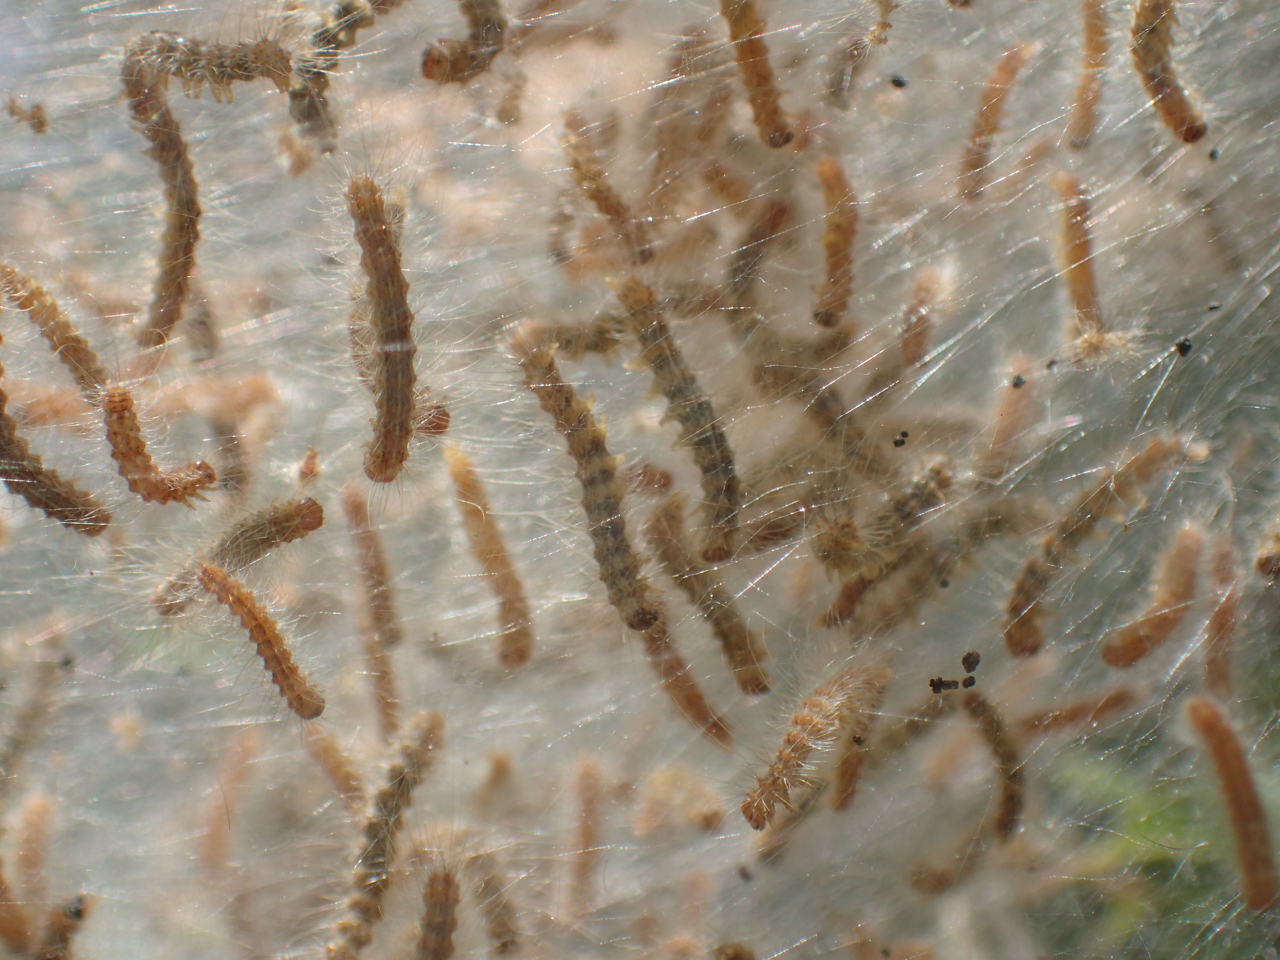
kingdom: Animalia
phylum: Arthropoda
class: Insecta
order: Lepidoptera
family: Erebidae
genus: Hyphantria
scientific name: Hyphantria cunea
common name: American white moth
